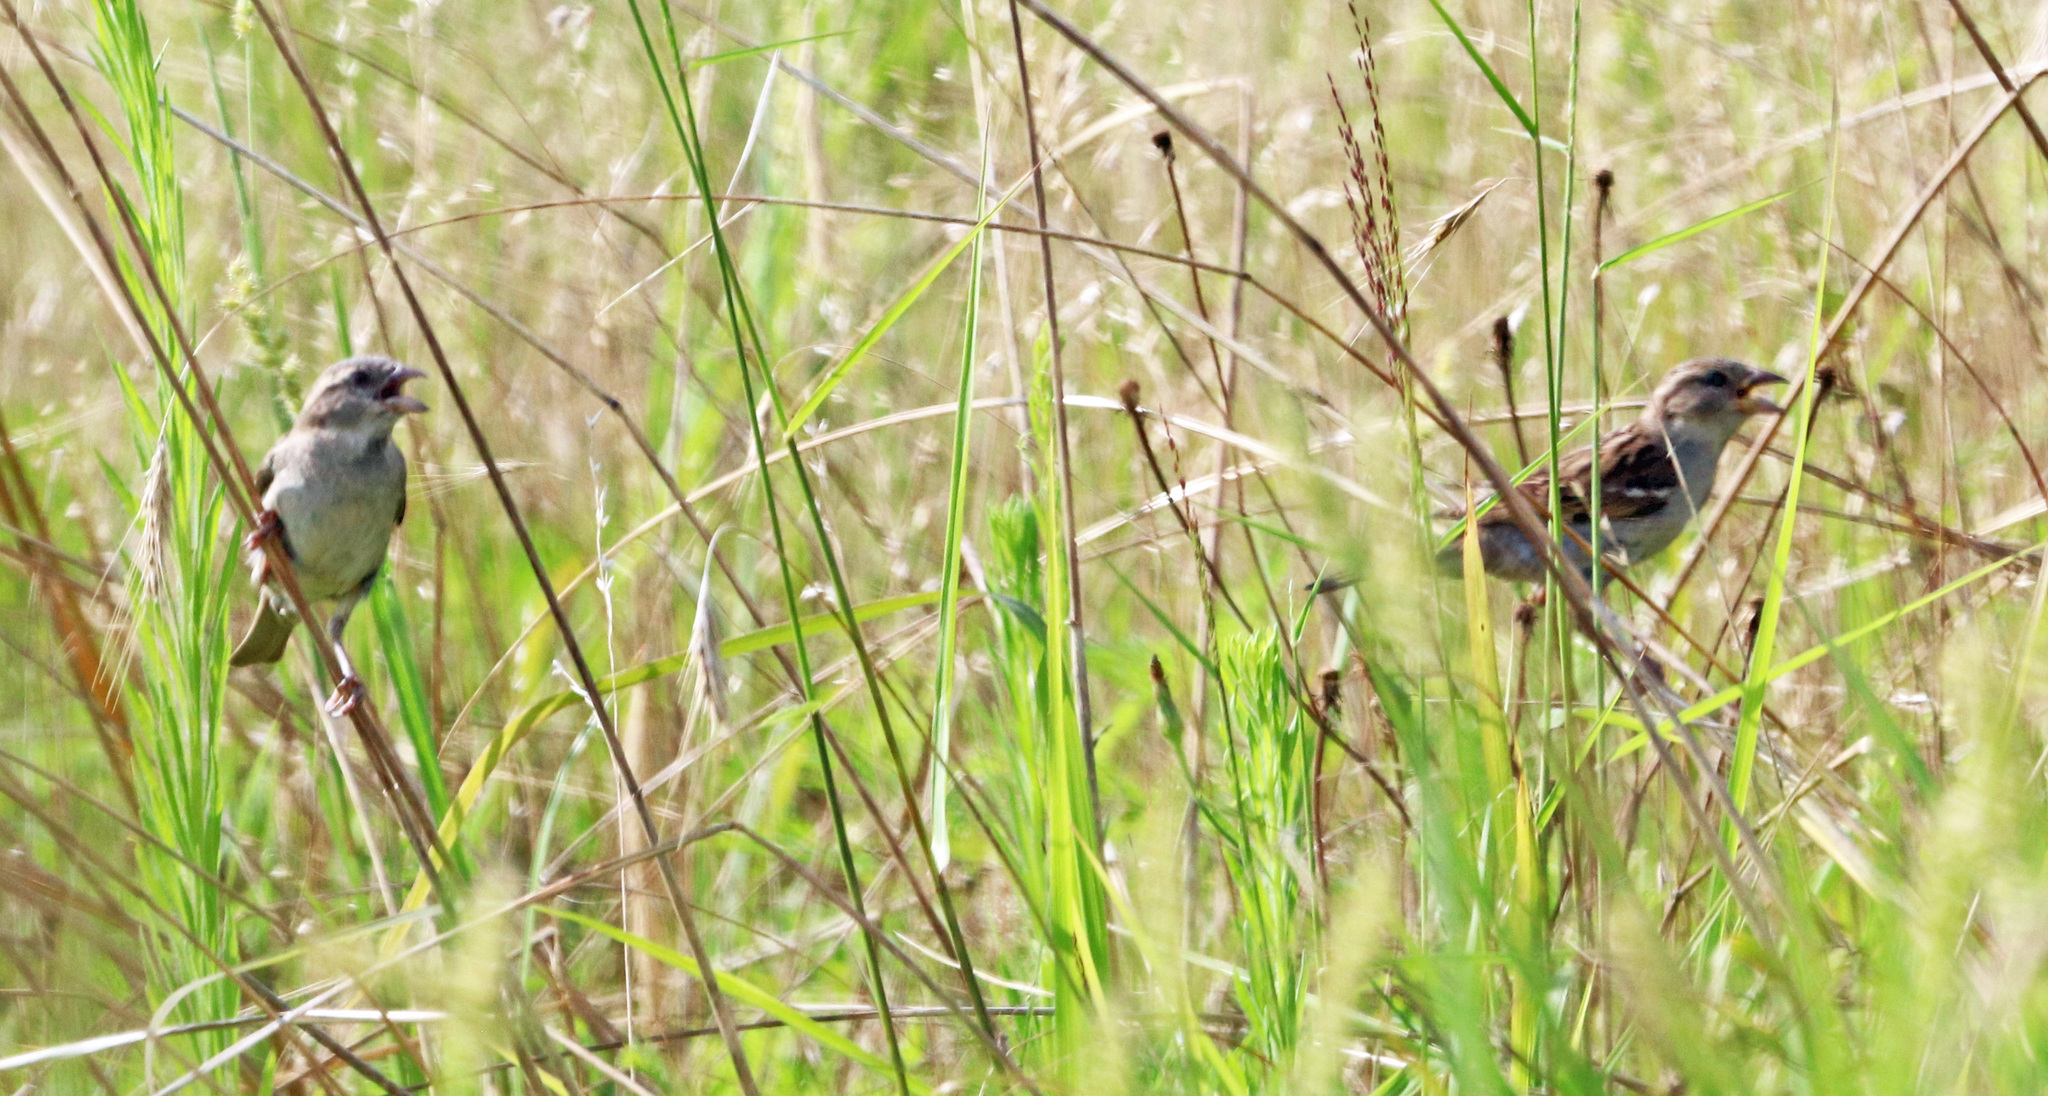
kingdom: Animalia
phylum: Chordata
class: Aves
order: Passeriformes
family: Passeridae
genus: Passer
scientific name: Passer domesticus
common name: House sparrow
